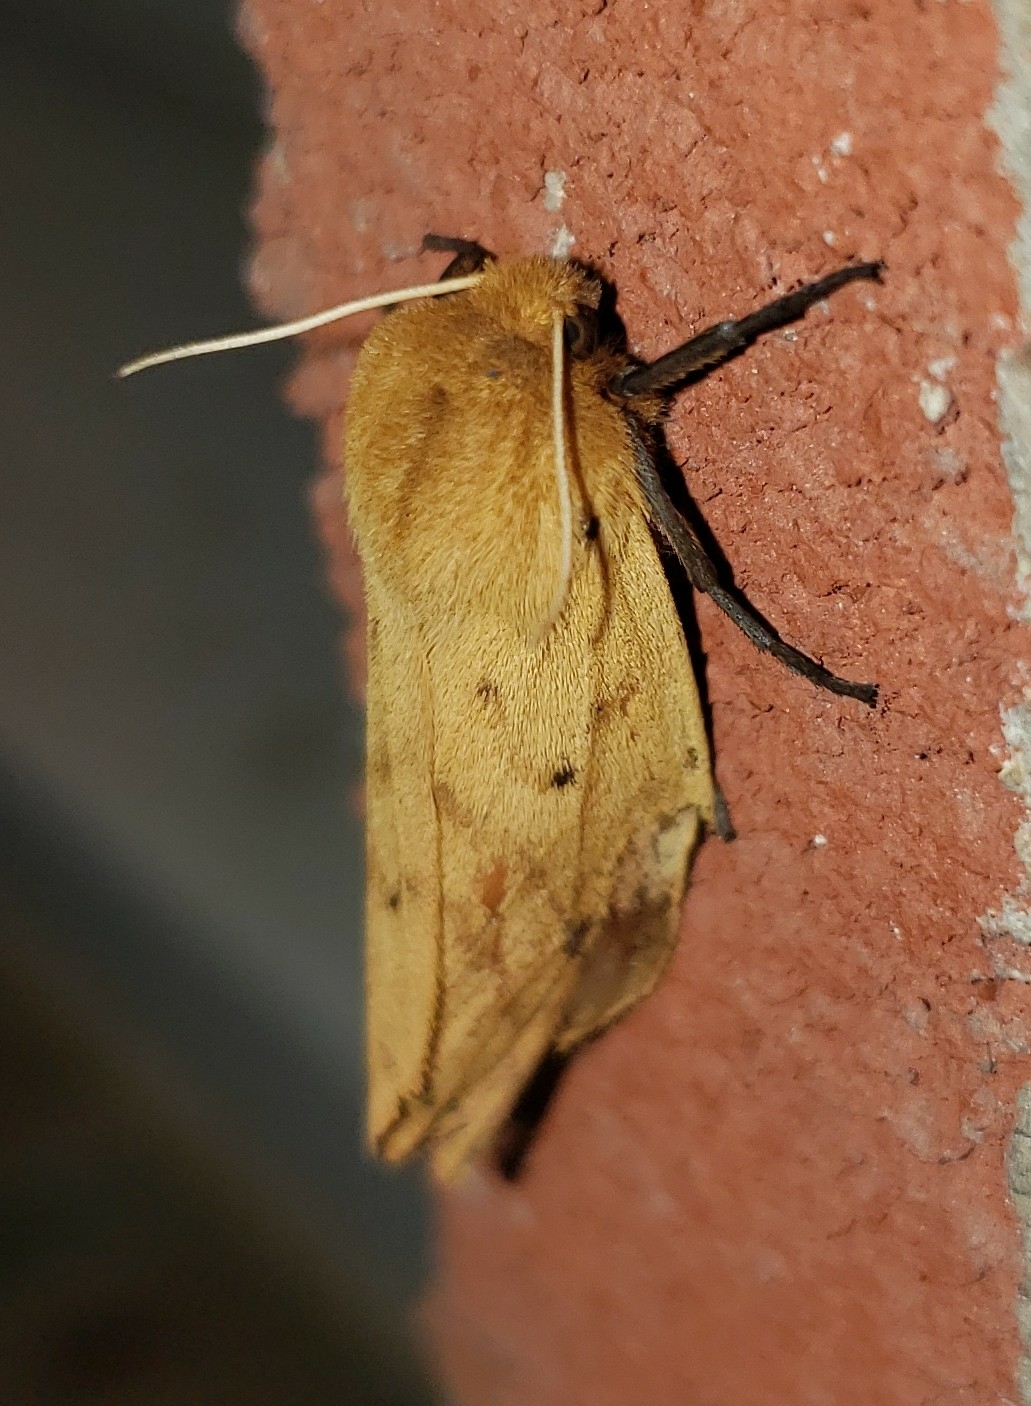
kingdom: Animalia
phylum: Arthropoda
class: Insecta
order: Lepidoptera
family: Erebidae
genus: Pyrrharctia
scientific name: Pyrrharctia isabella
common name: Isabella tiger moth
